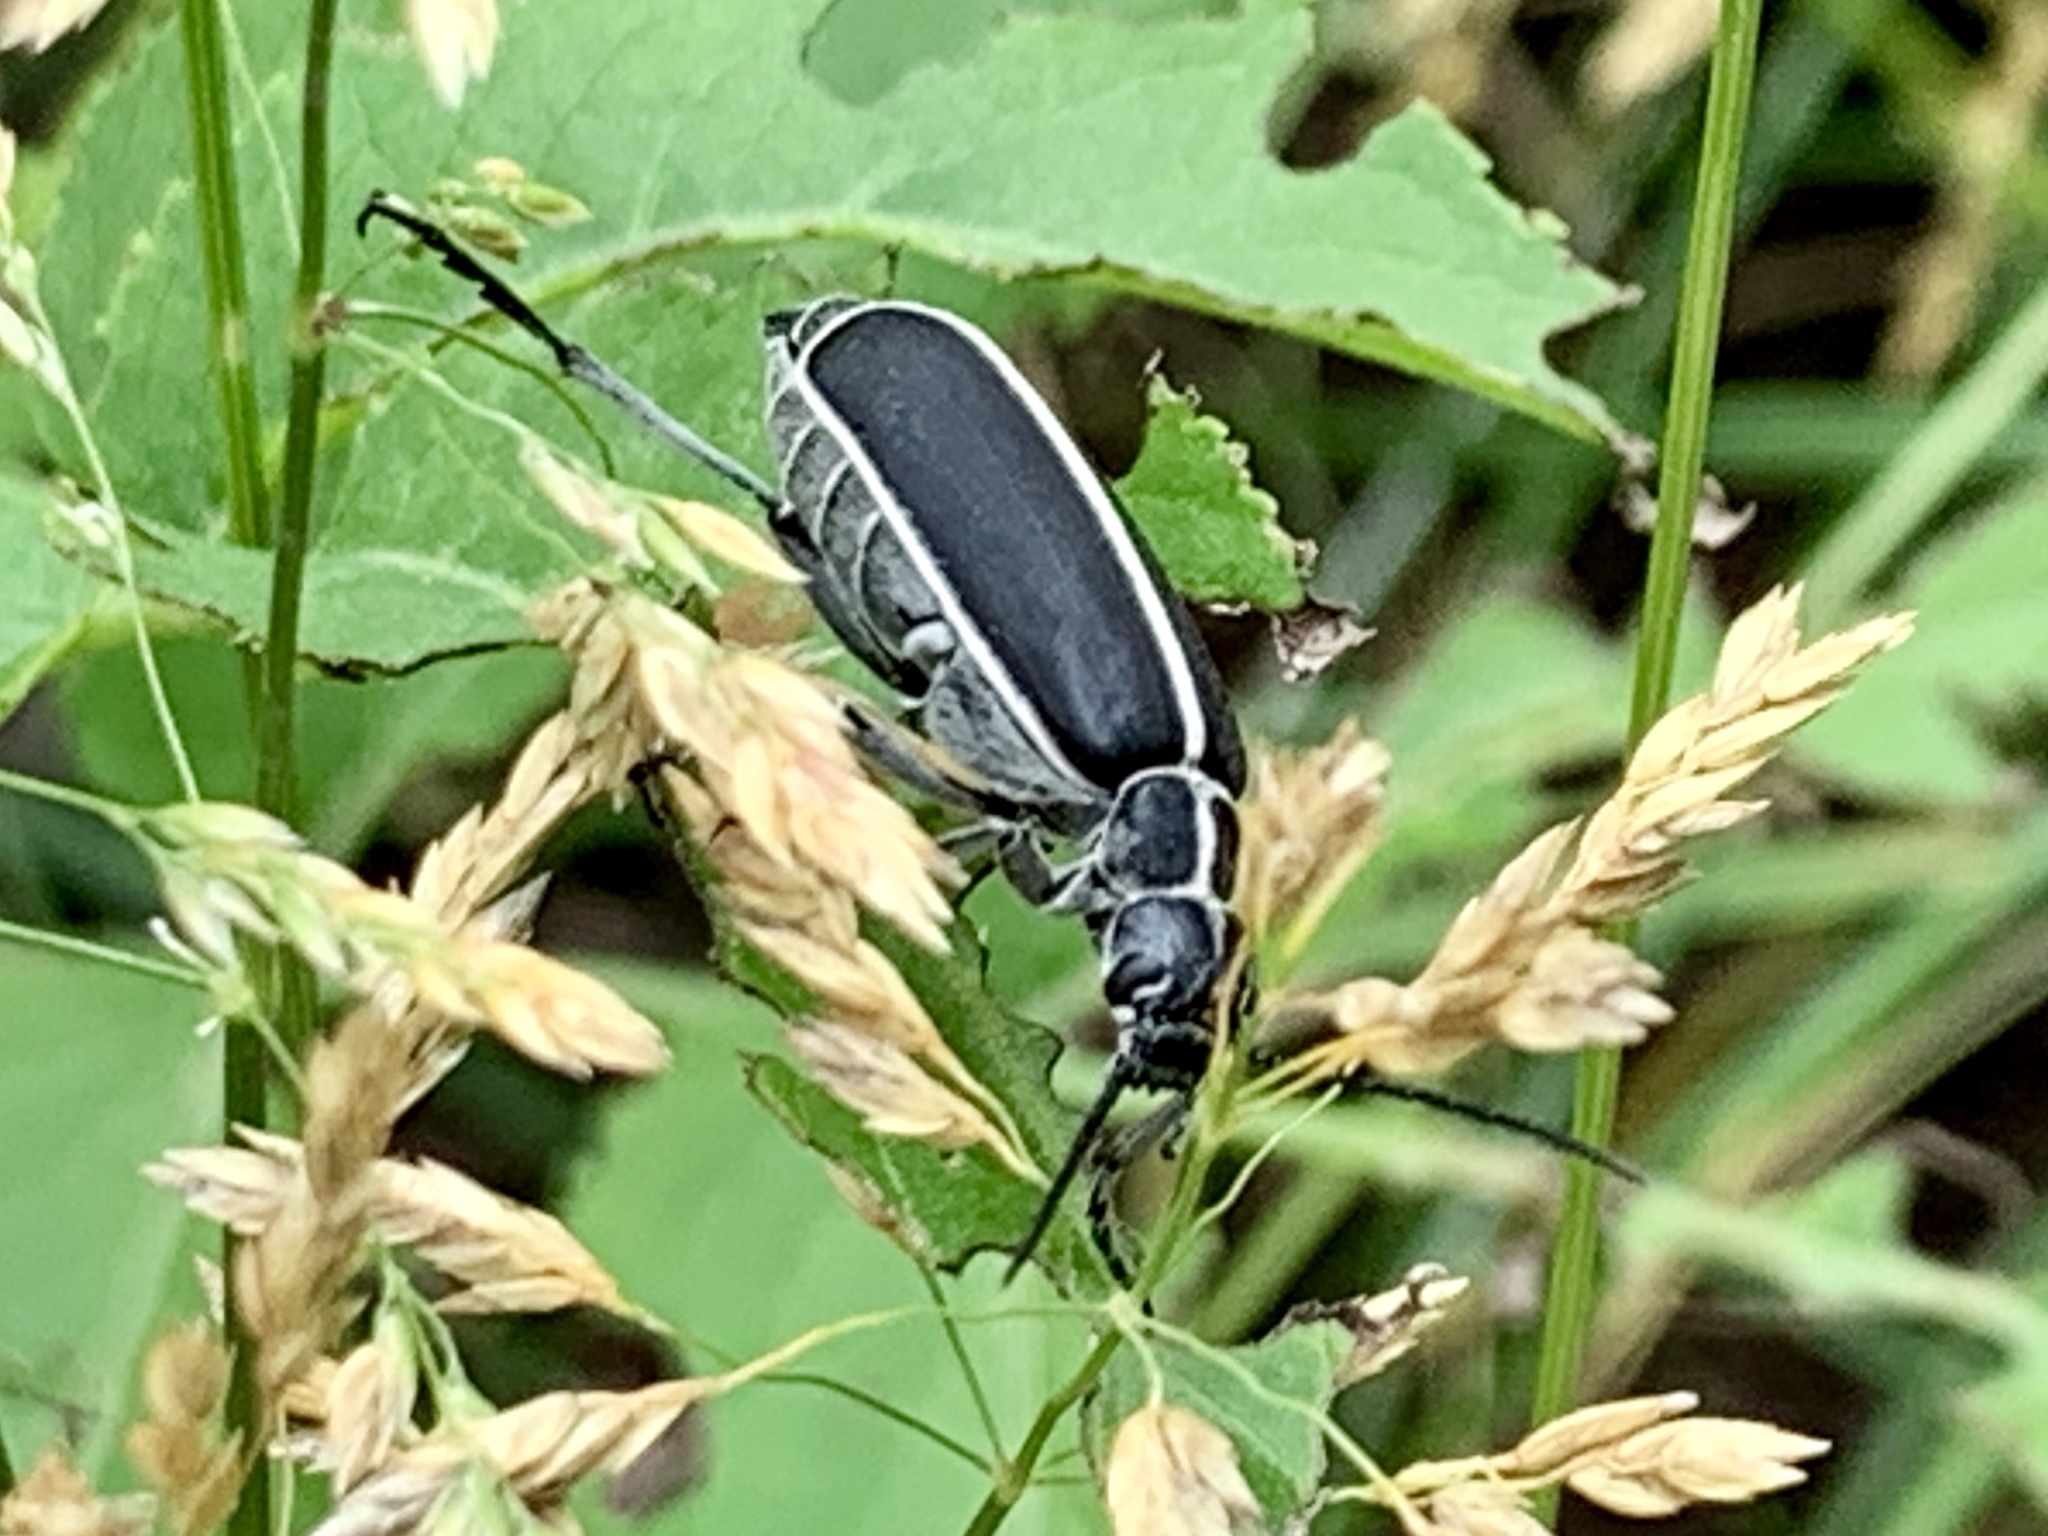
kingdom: Animalia
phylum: Arthropoda
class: Insecta
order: Coleoptera
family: Meloidae
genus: Epicauta
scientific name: Epicauta cinctipennis
